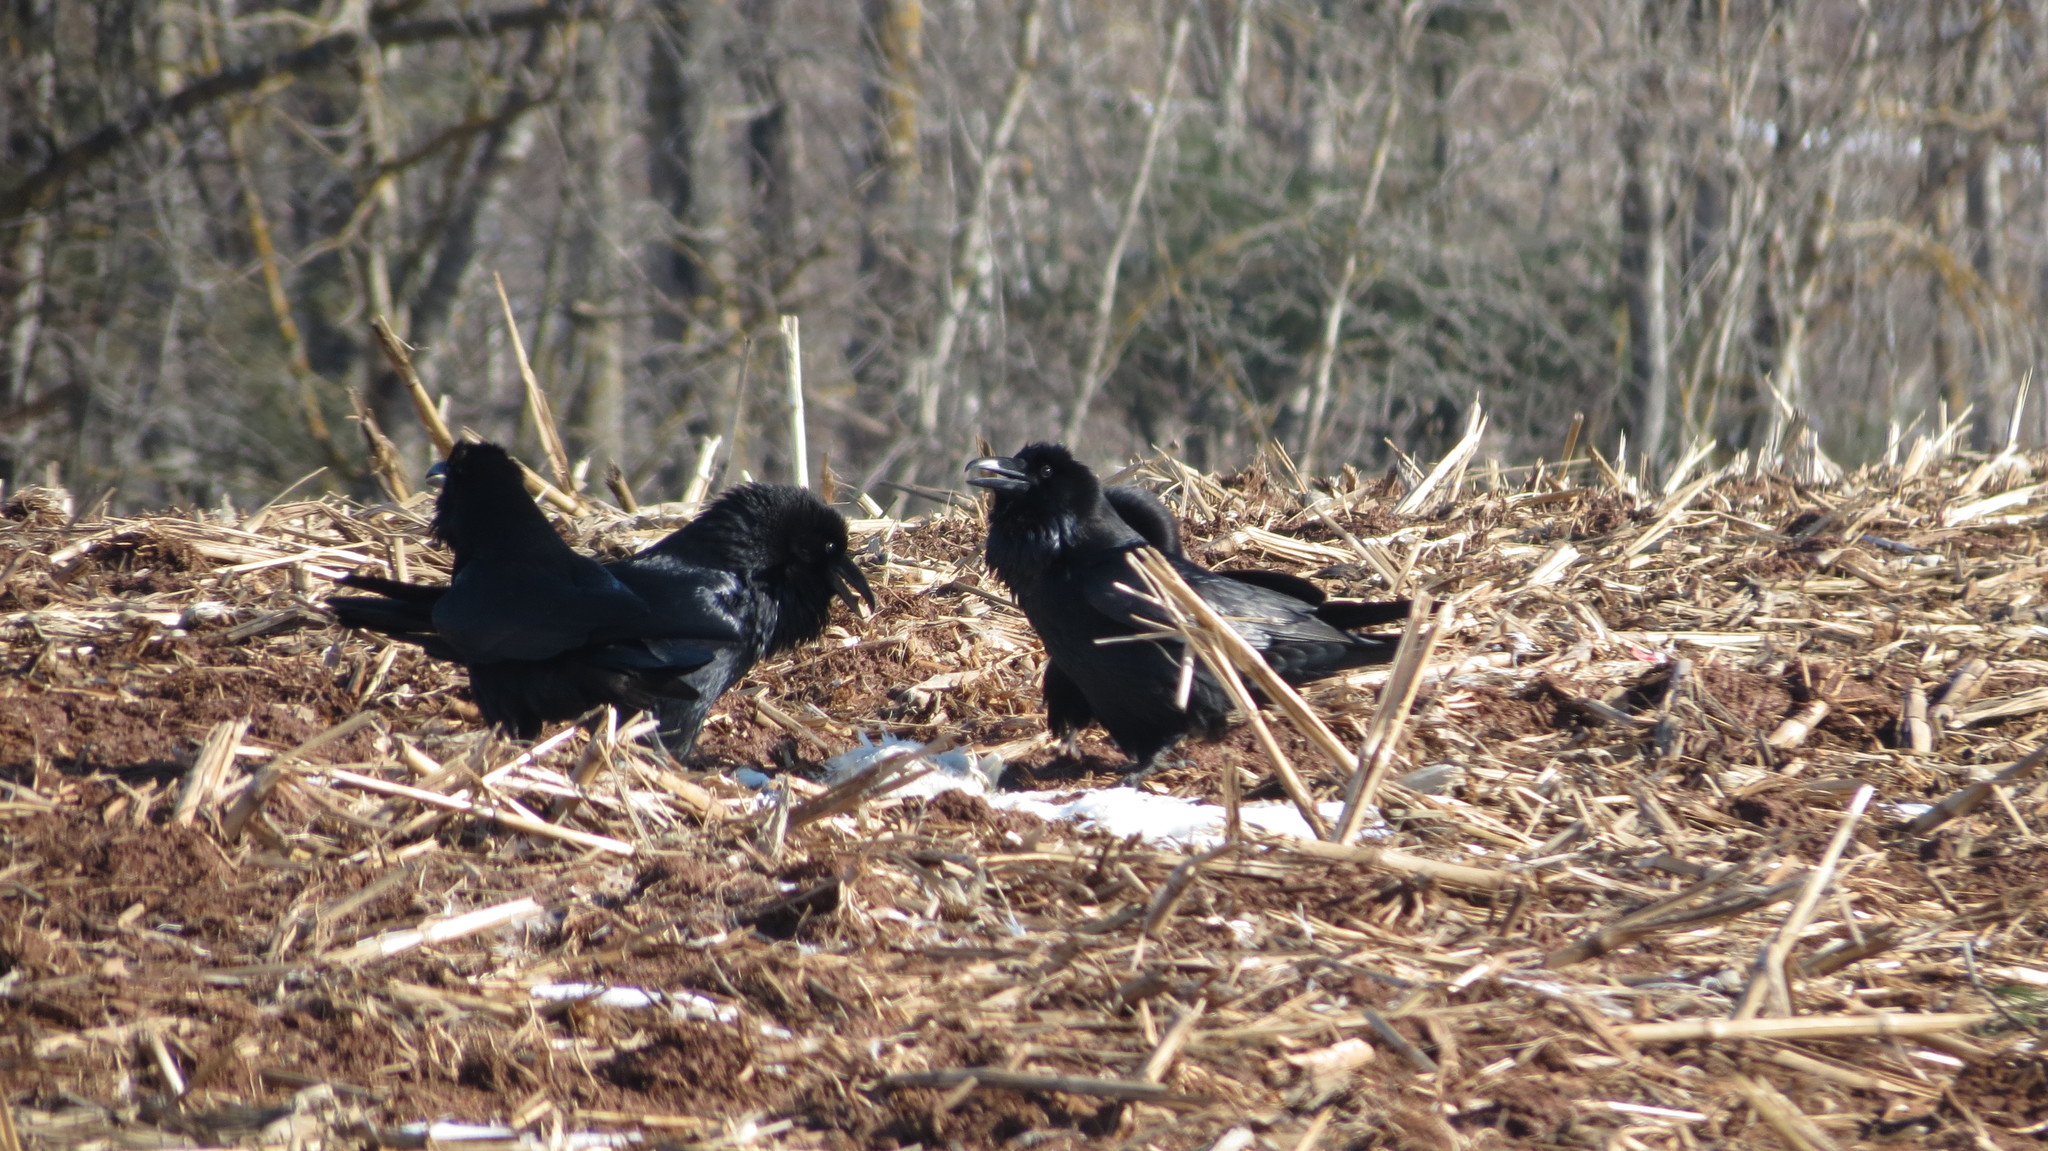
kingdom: Animalia
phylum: Chordata
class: Aves
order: Passeriformes
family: Corvidae
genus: Corvus
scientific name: Corvus corax
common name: Common raven
